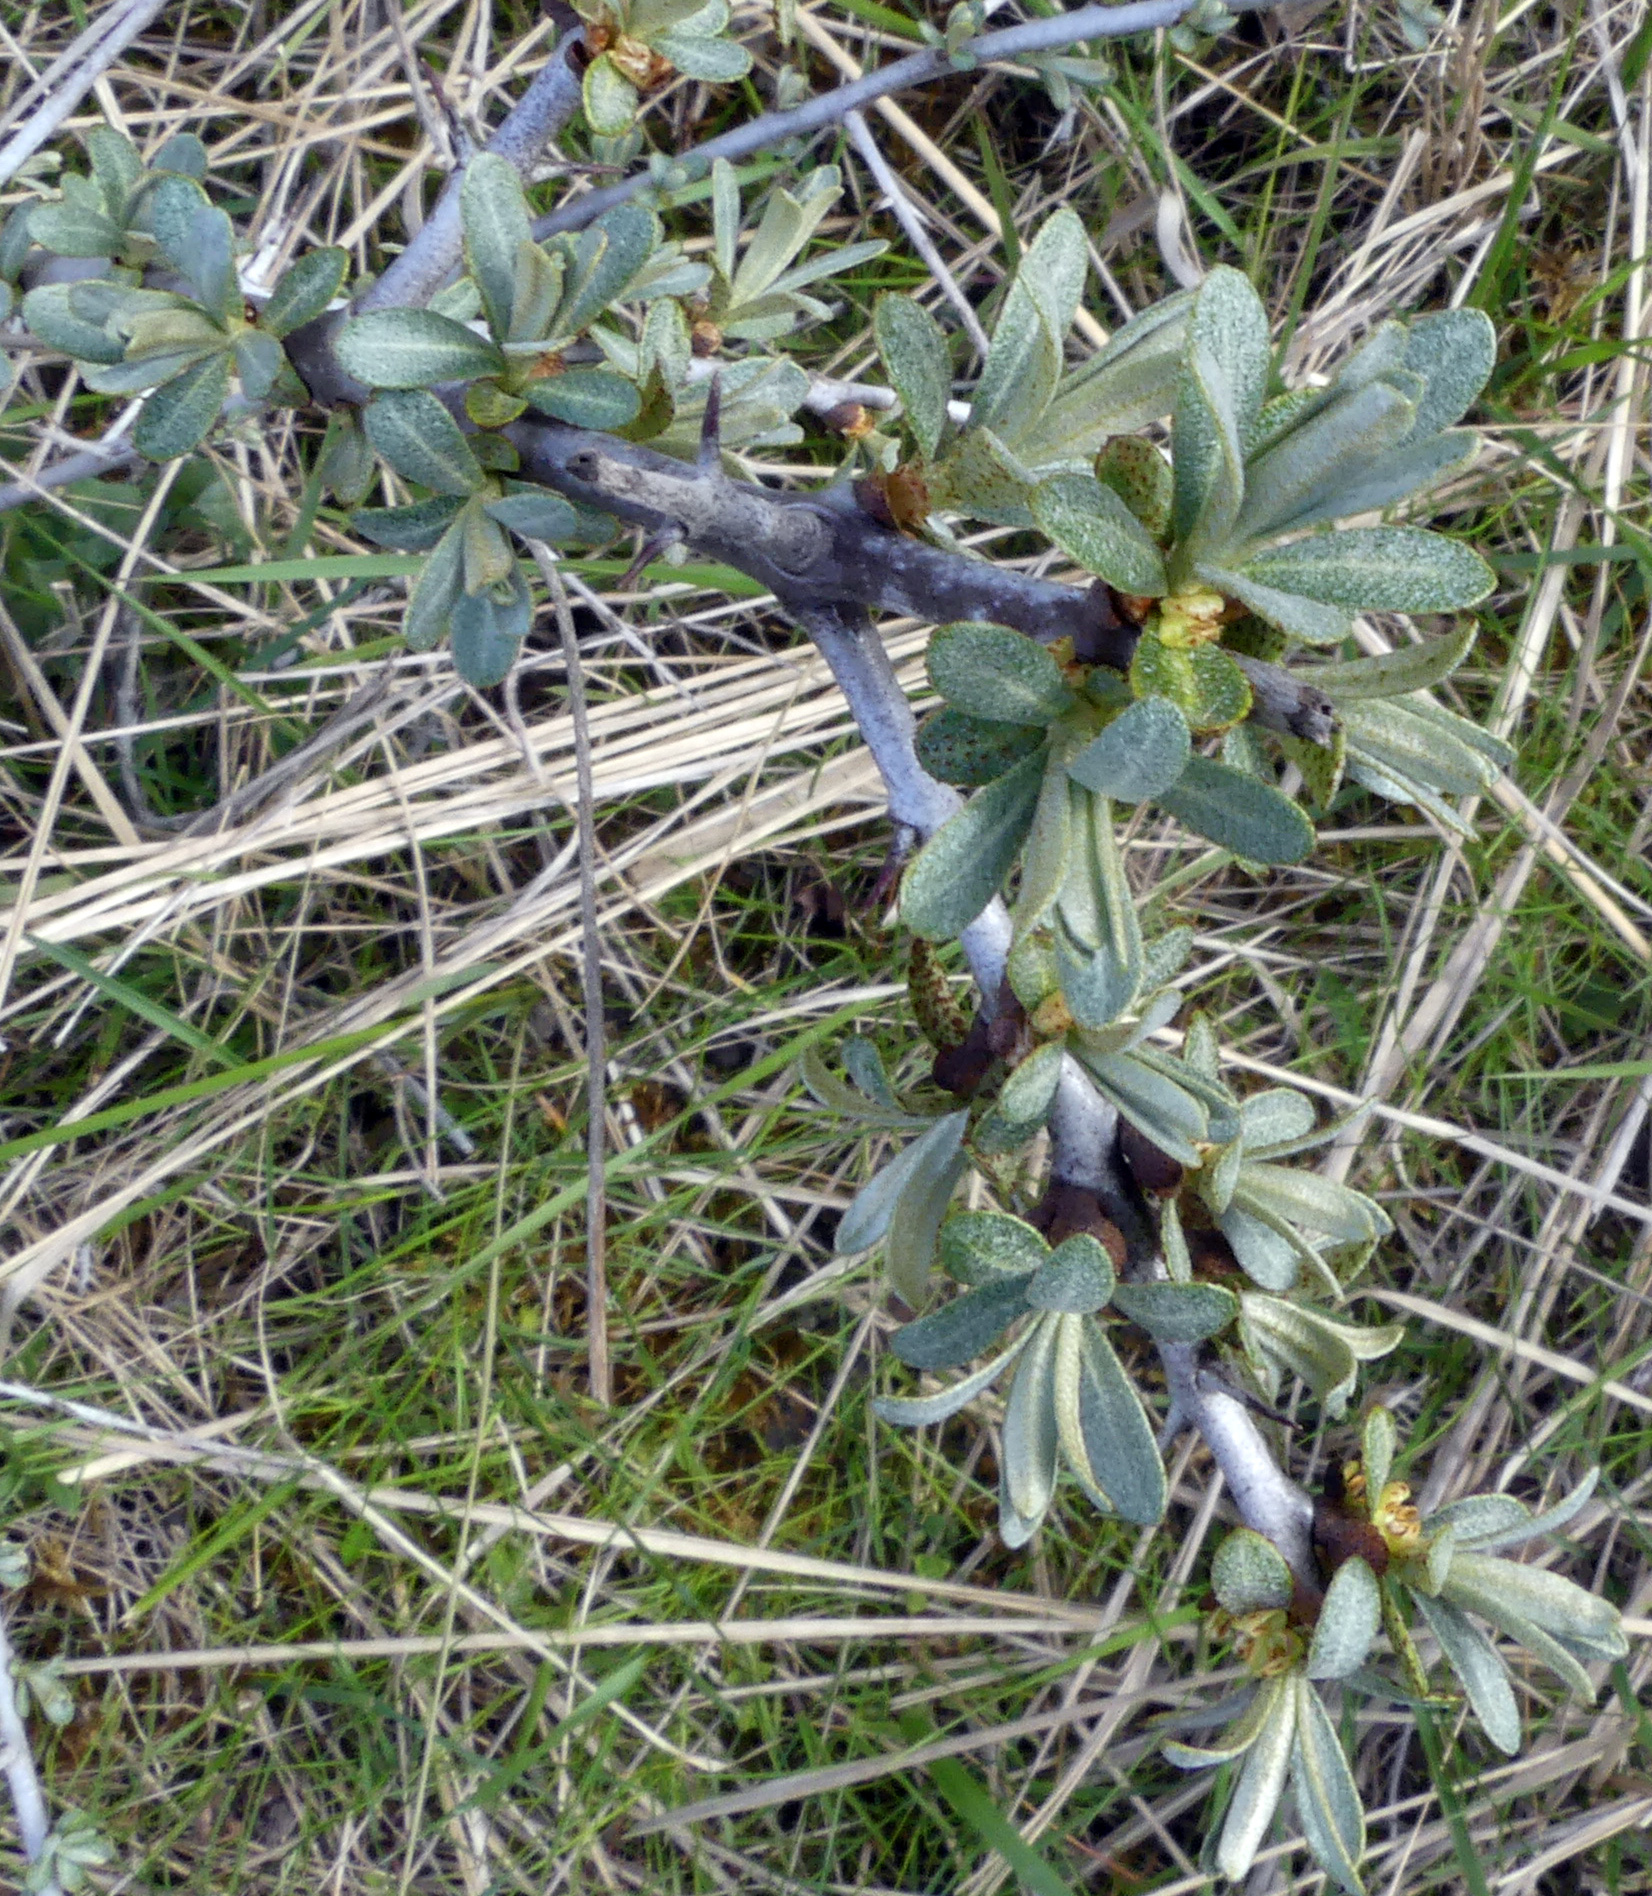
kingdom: Plantae
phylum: Tracheophyta
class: Magnoliopsida
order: Rosales
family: Elaeagnaceae
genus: Hippophae
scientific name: Hippophae rhamnoides
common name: Sea-buckthorn
